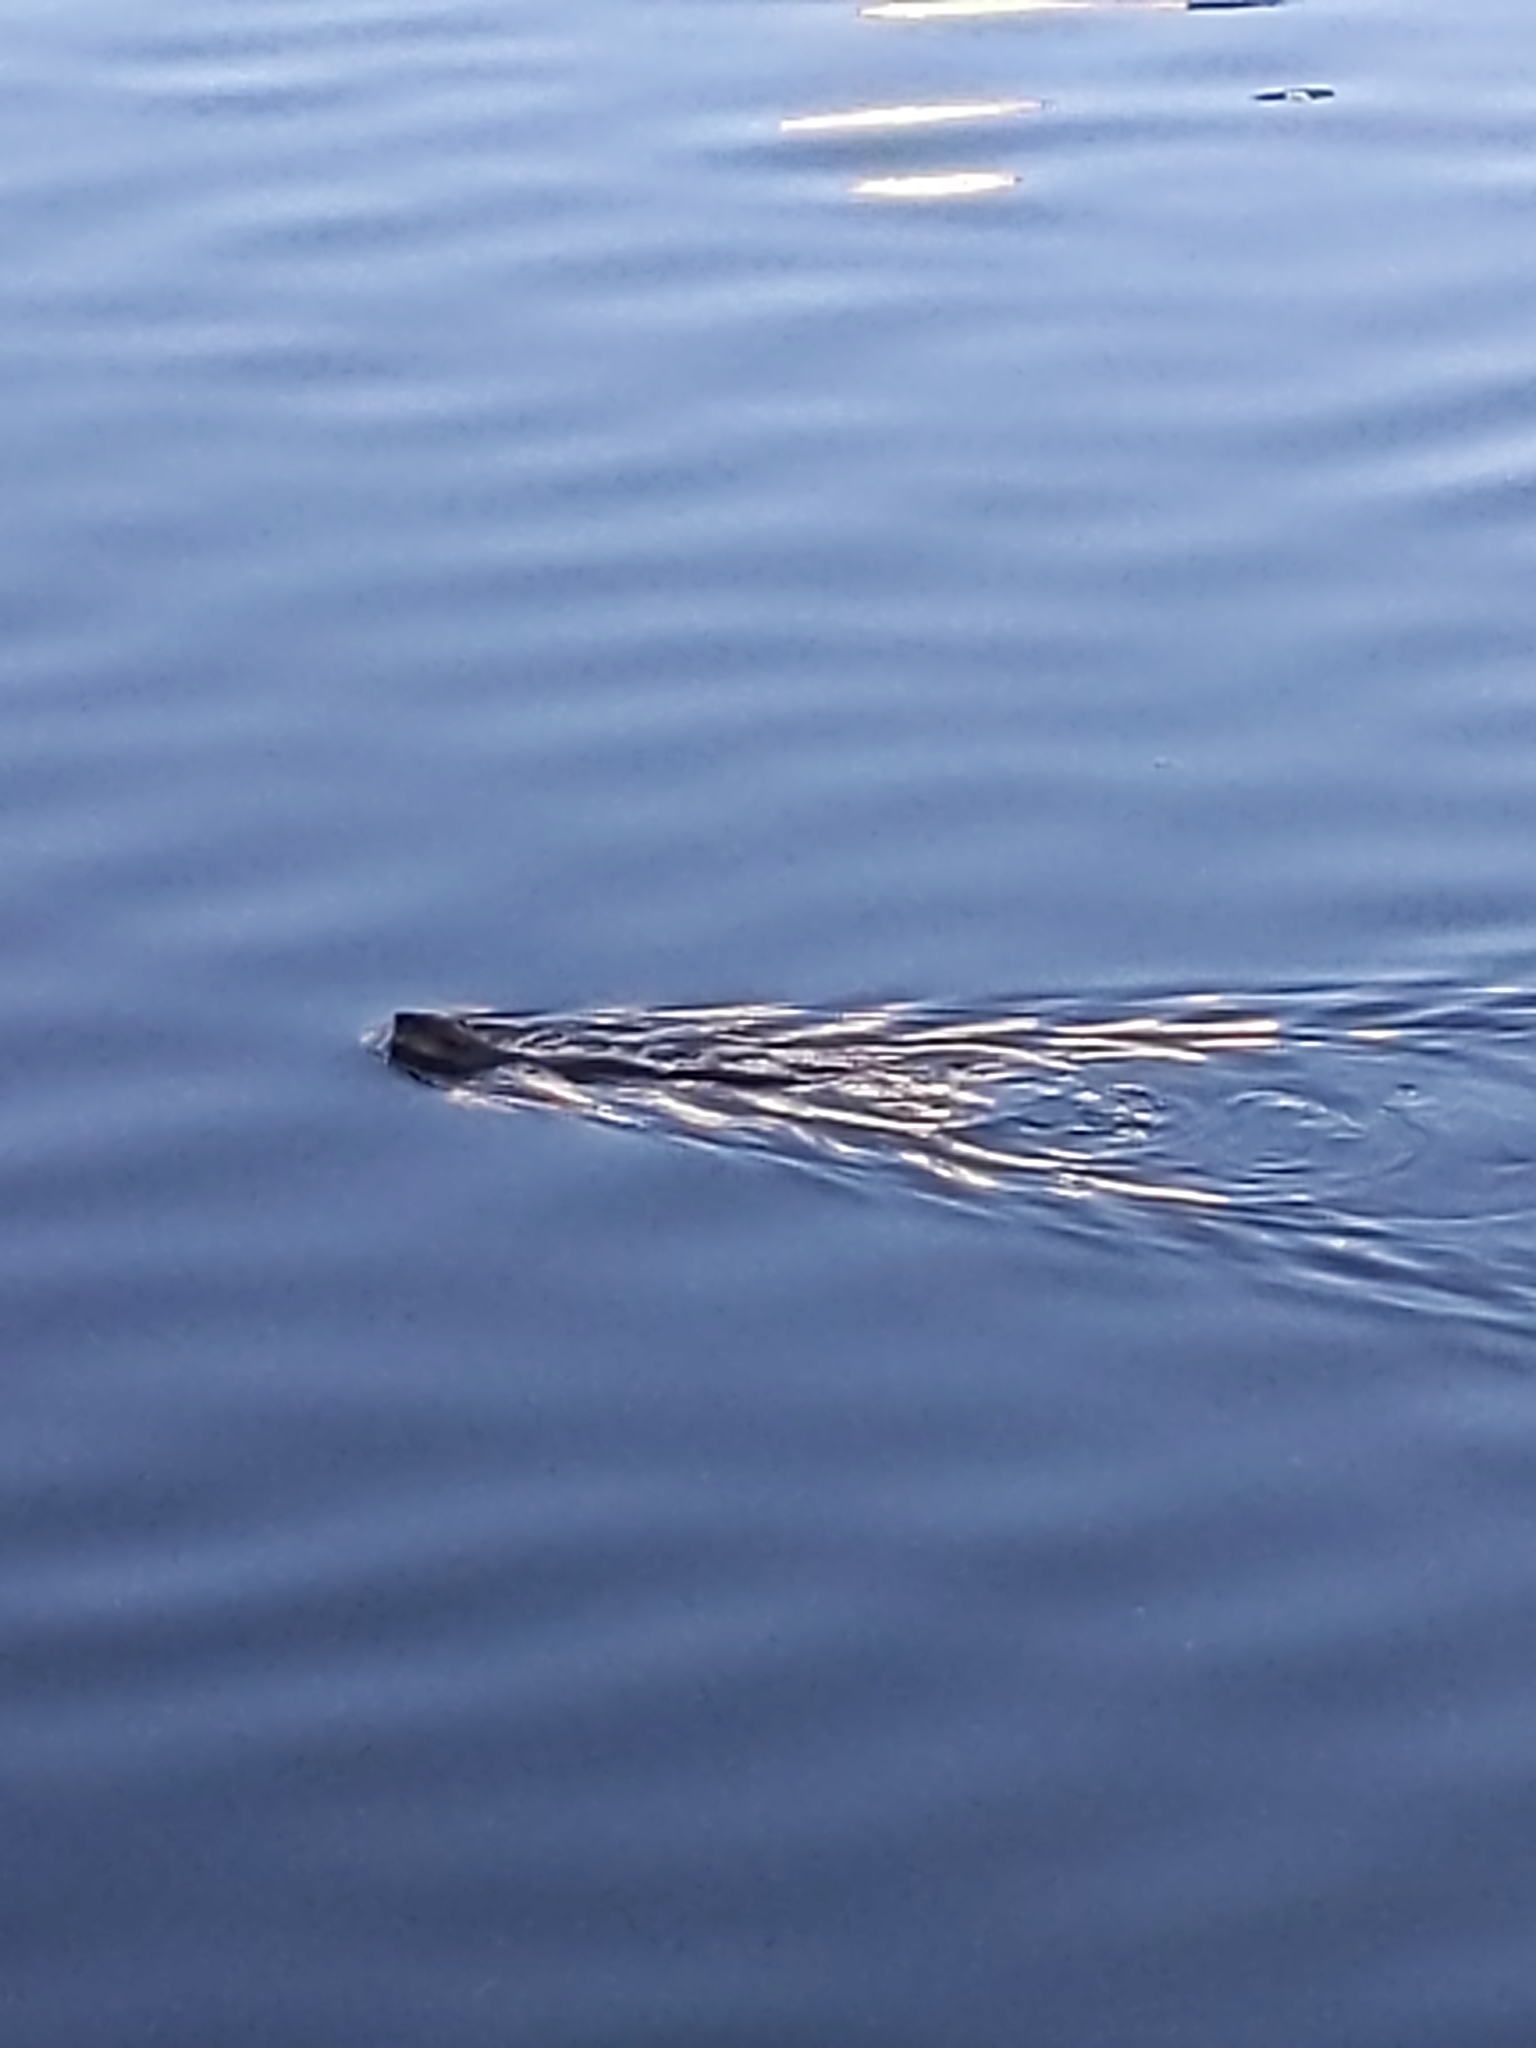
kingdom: Animalia
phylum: Chordata
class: Mammalia
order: Rodentia
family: Cricetidae
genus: Ondatra
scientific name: Ondatra zibethicus
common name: Muskrat
